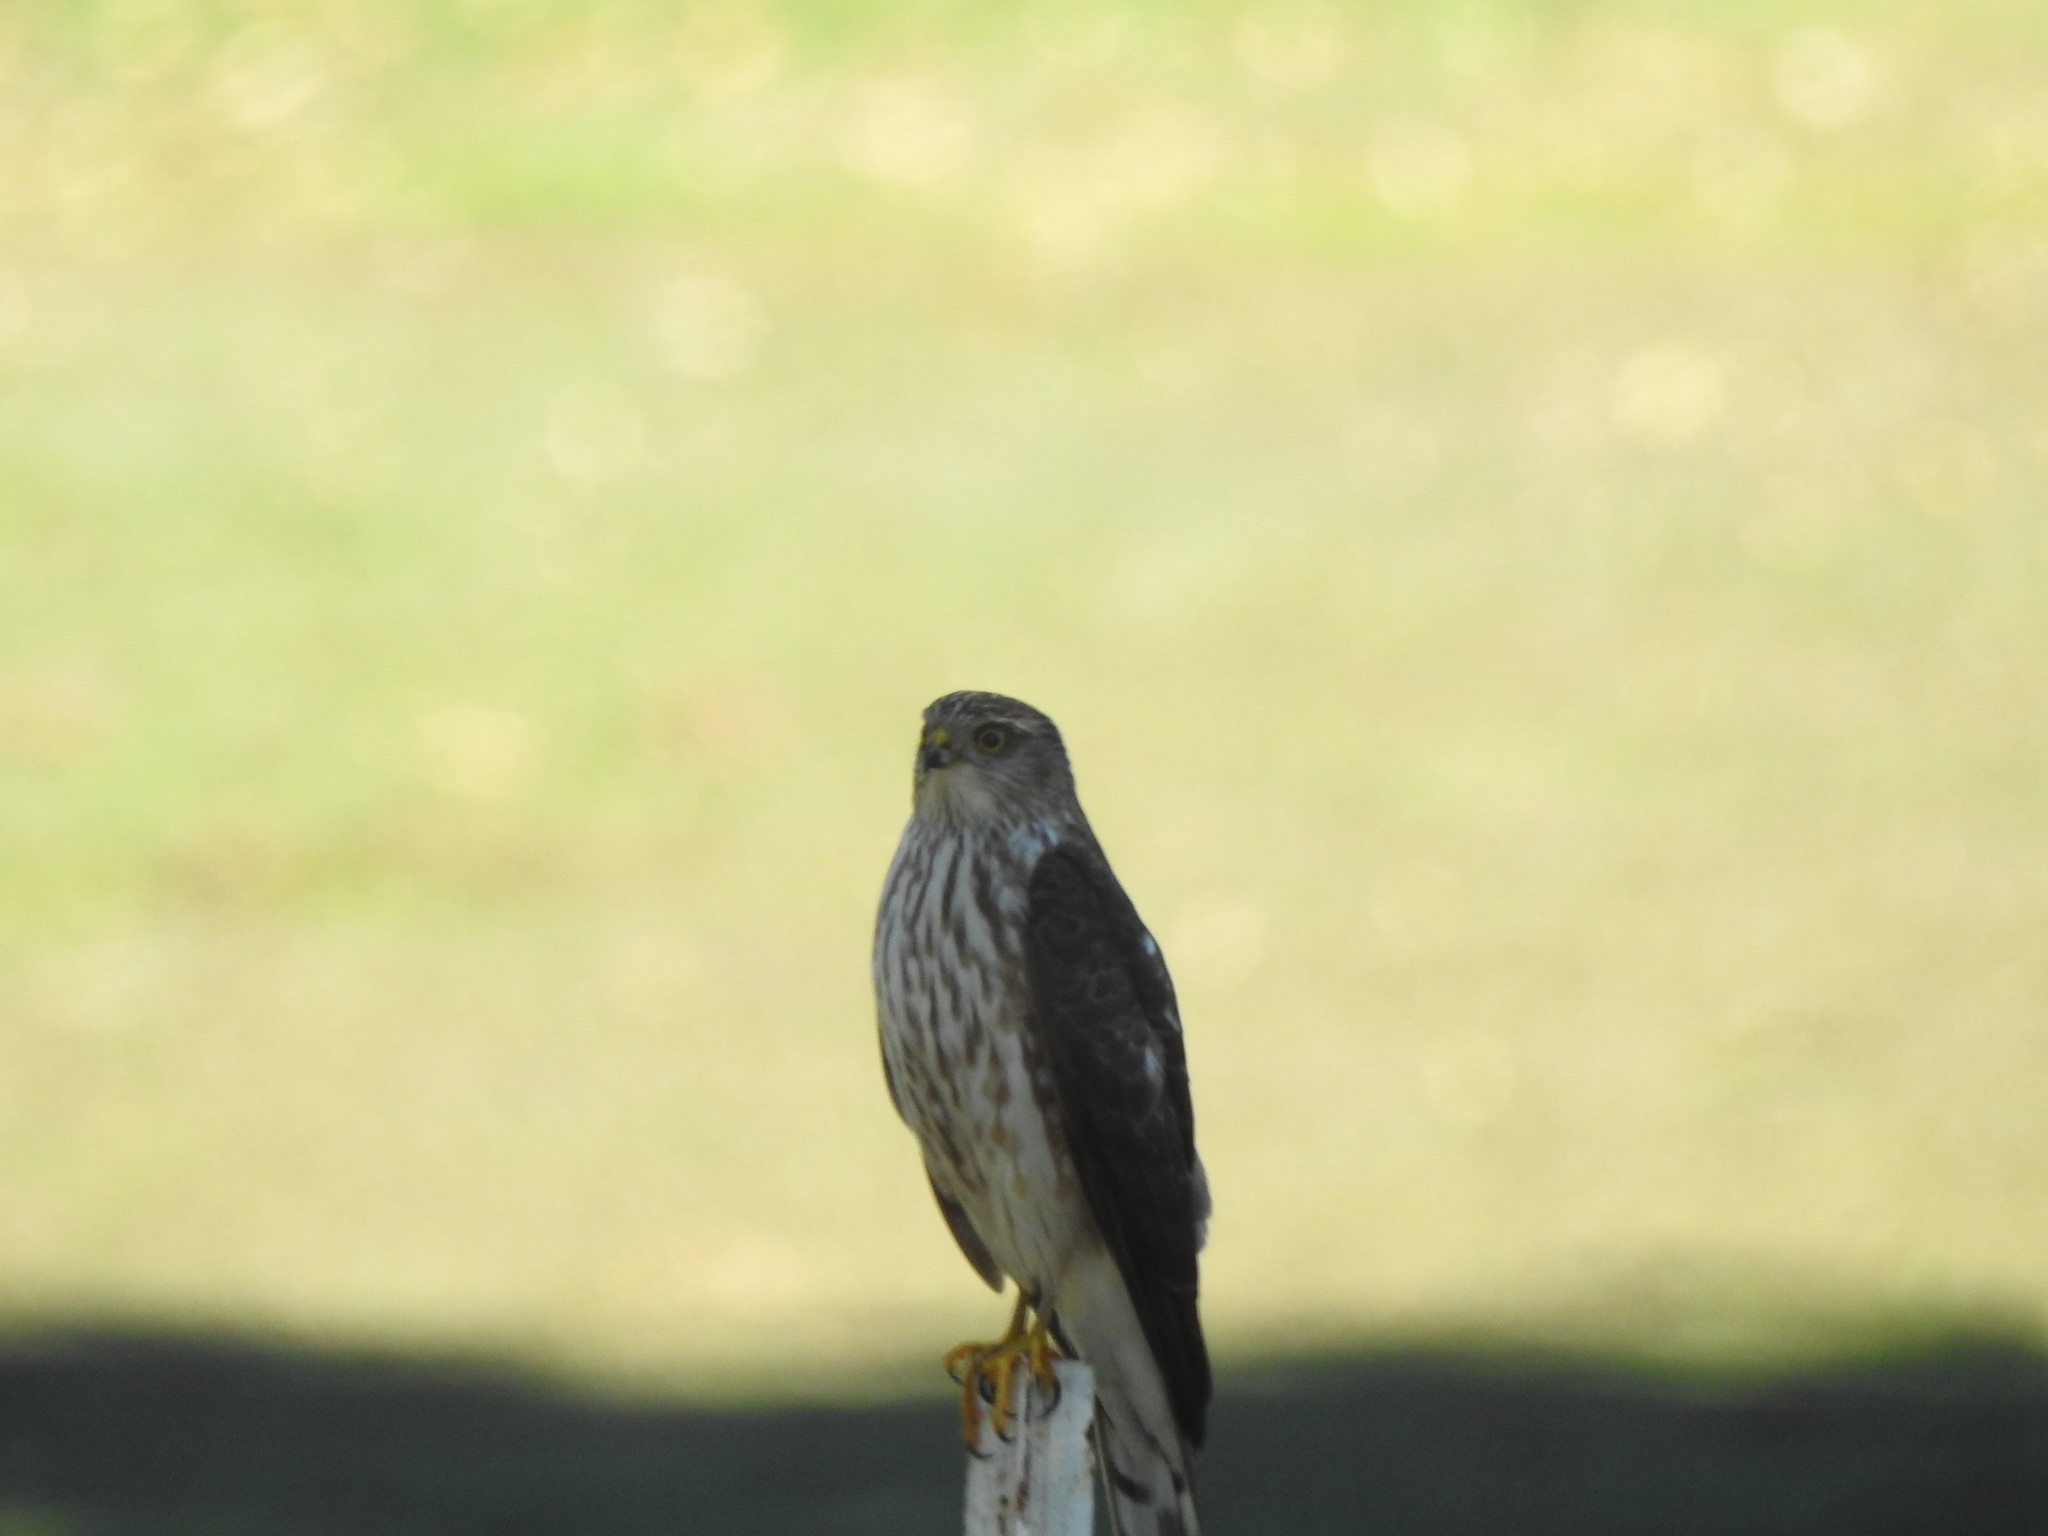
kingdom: Animalia
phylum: Chordata
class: Aves
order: Accipitriformes
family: Accipitridae
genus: Accipiter
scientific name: Accipiter striatus
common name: Sharp-shinned hawk
